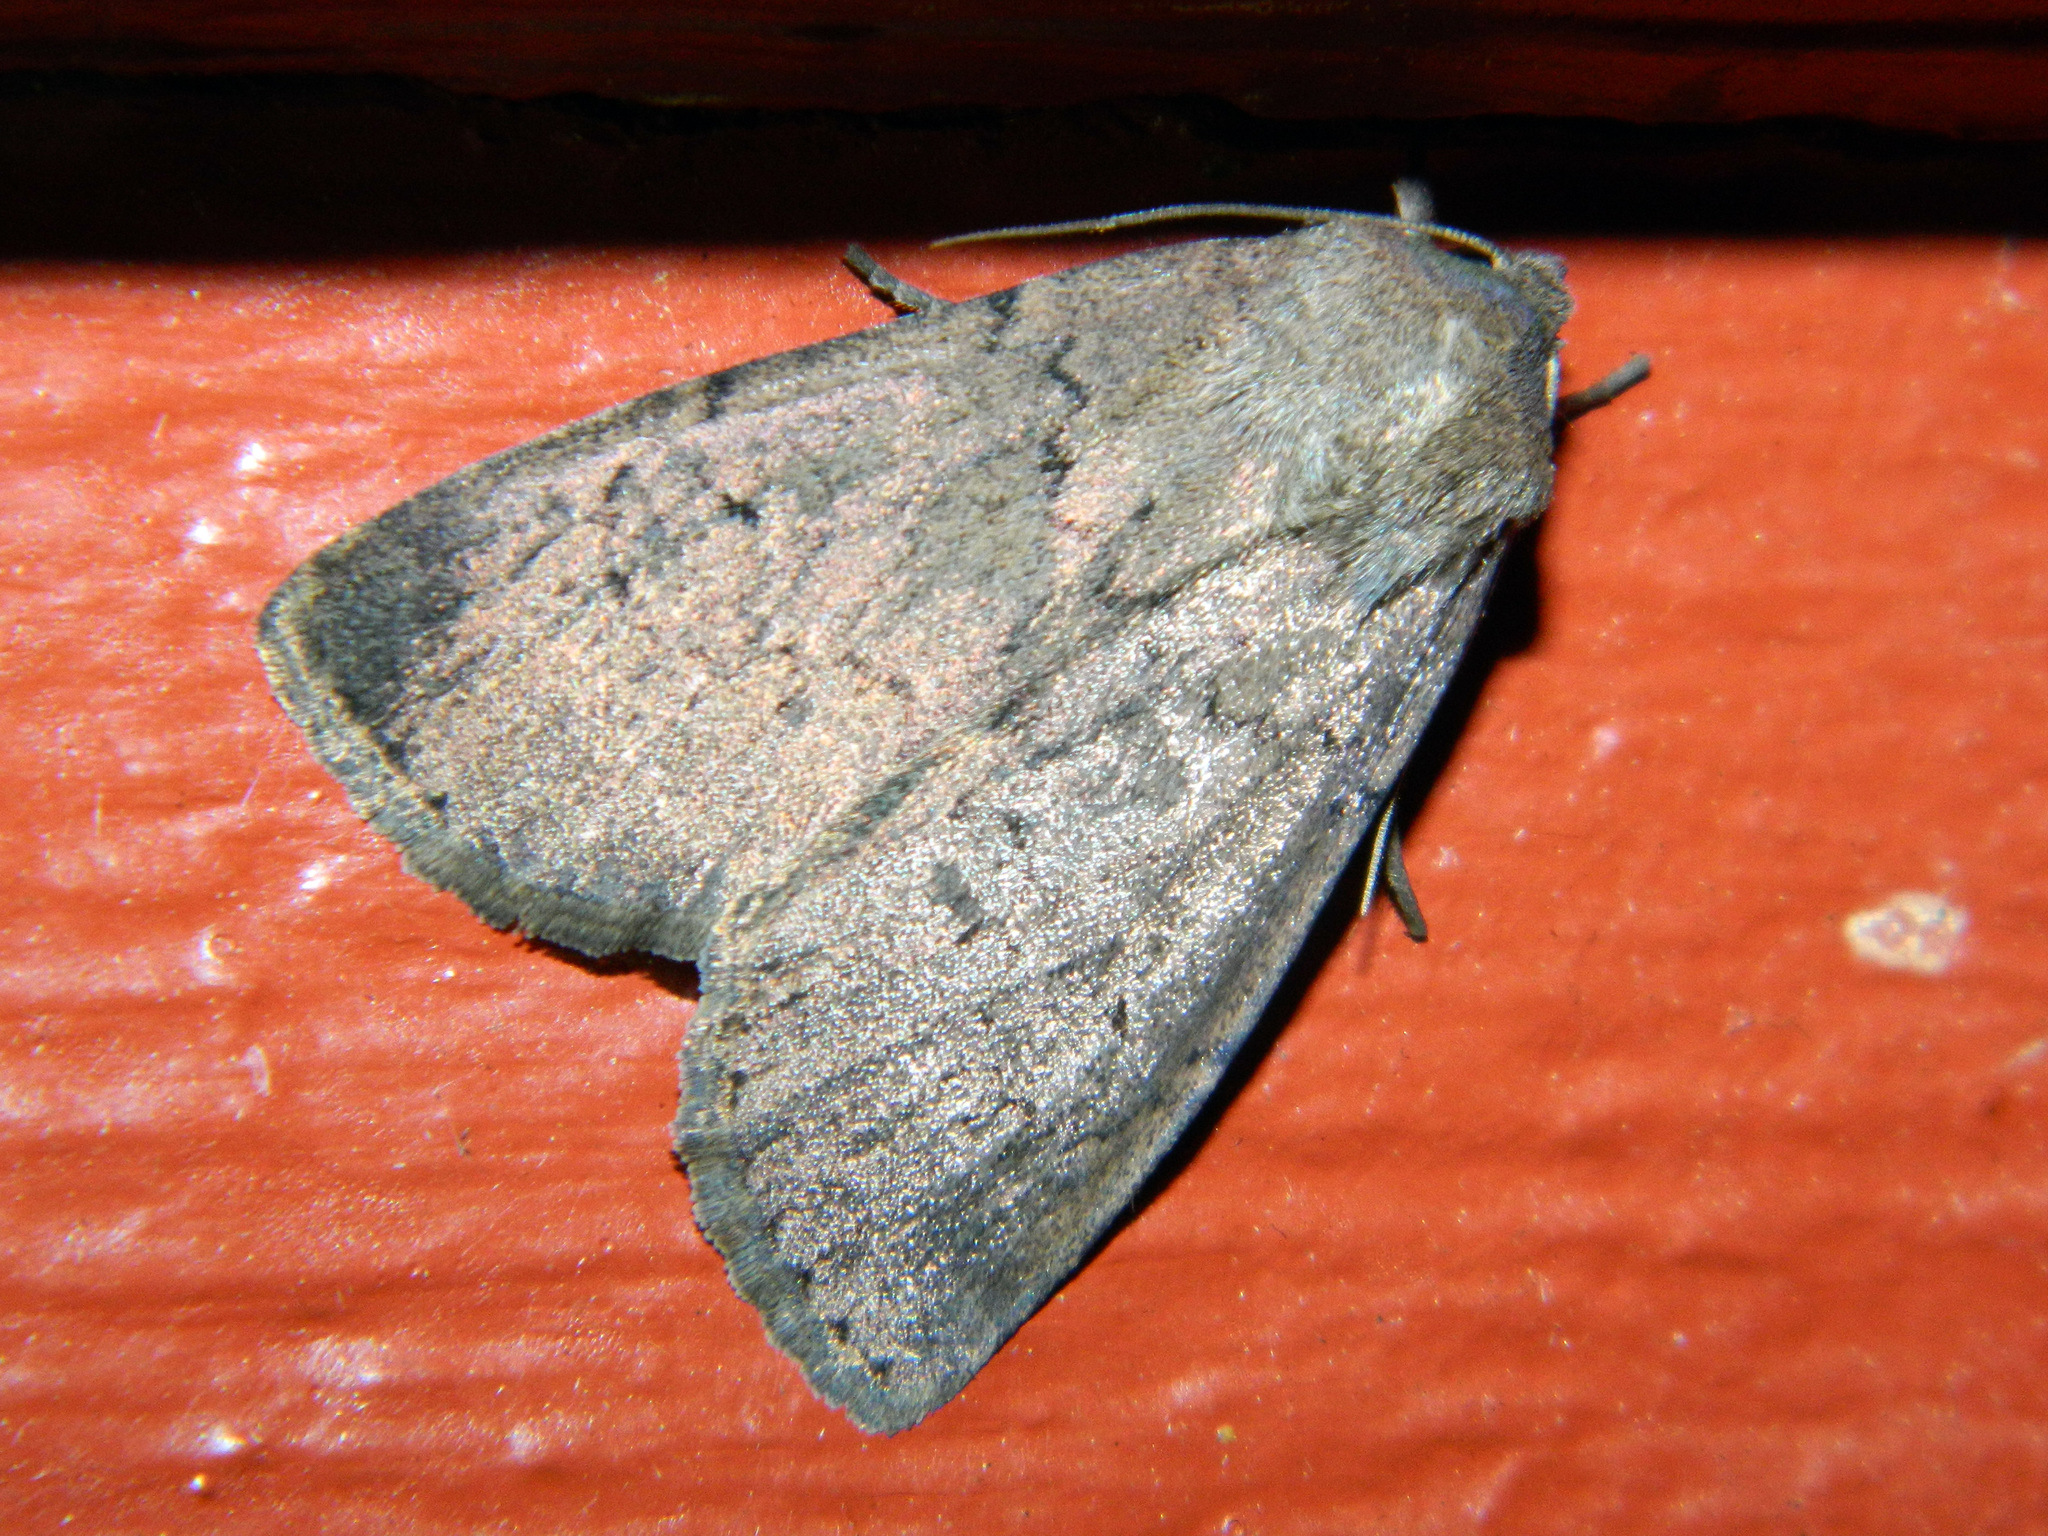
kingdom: Animalia
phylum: Arthropoda
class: Insecta
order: Lepidoptera
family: Noctuidae
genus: Graphiphora
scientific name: Graphiphora augur
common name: Double dart
